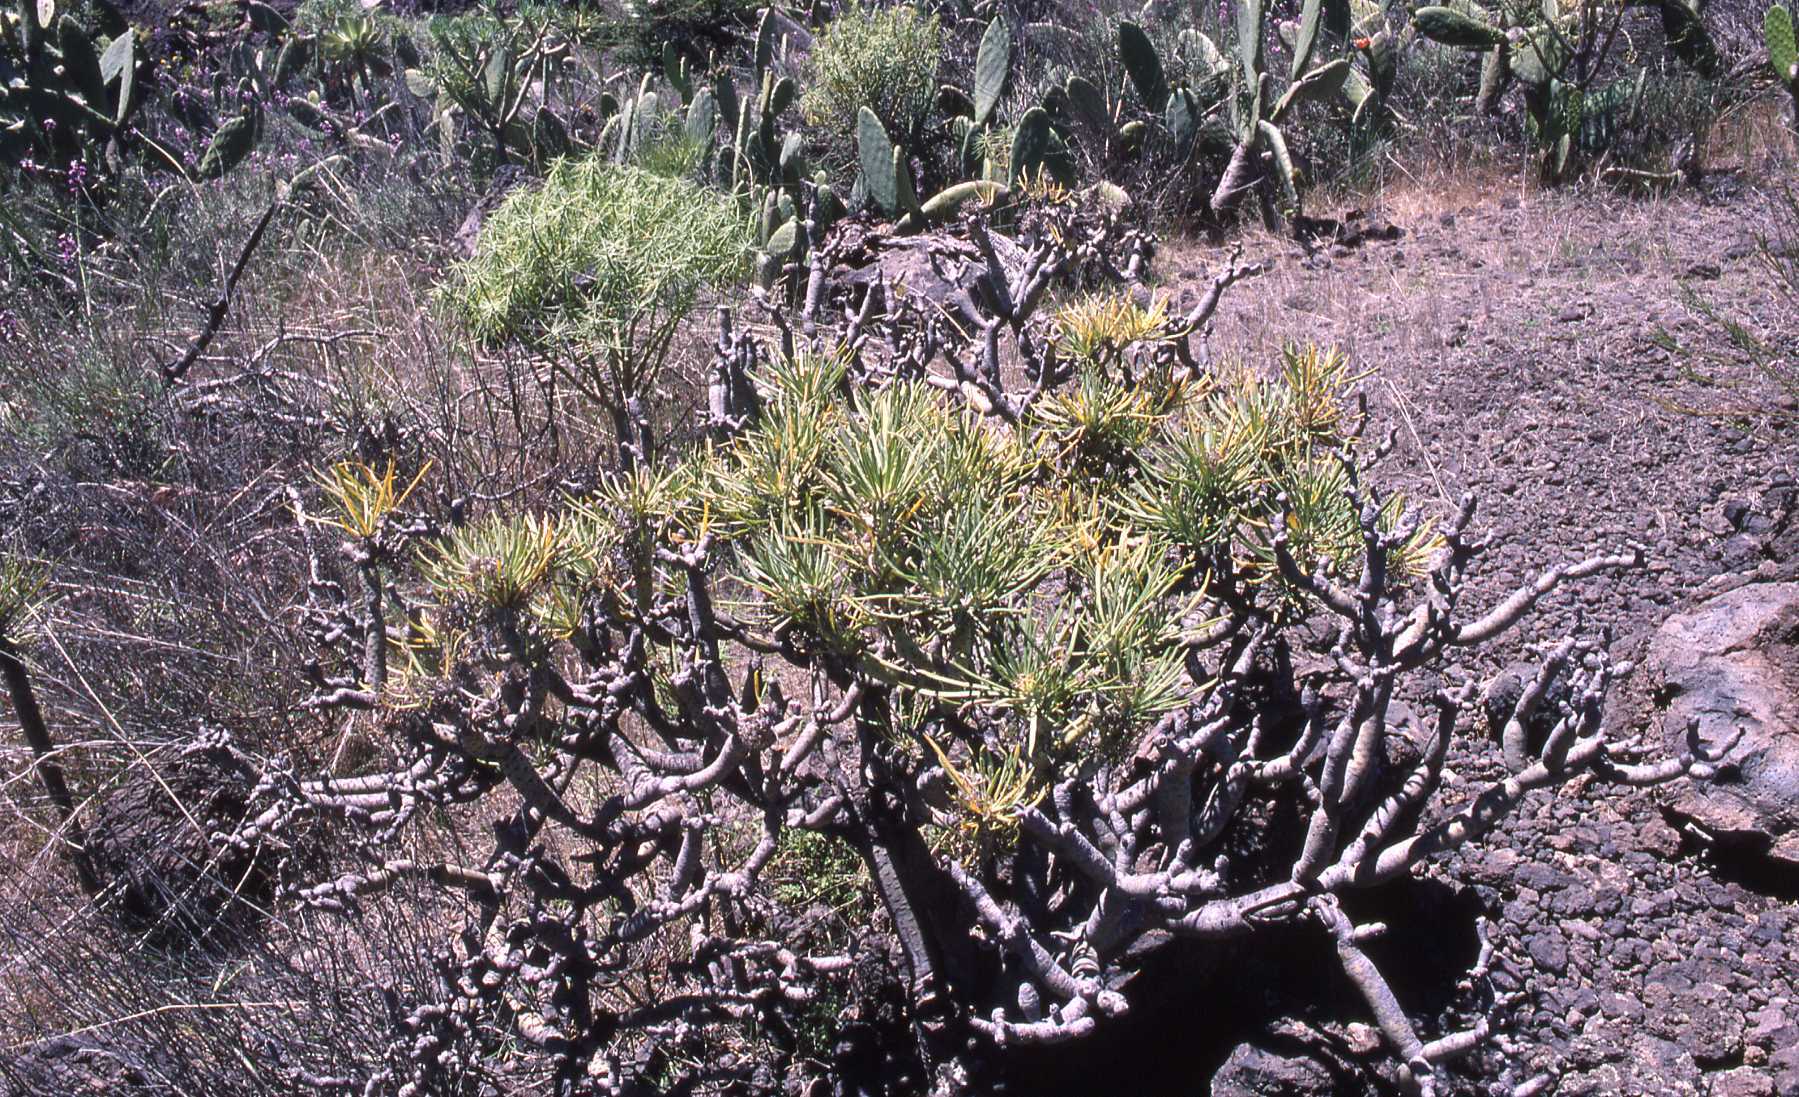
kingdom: Plantae
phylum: Tracheophyta
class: Magnoliopsida
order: Asterales
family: Asteraceae
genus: Kleinia
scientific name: Kleinia neriifolia
